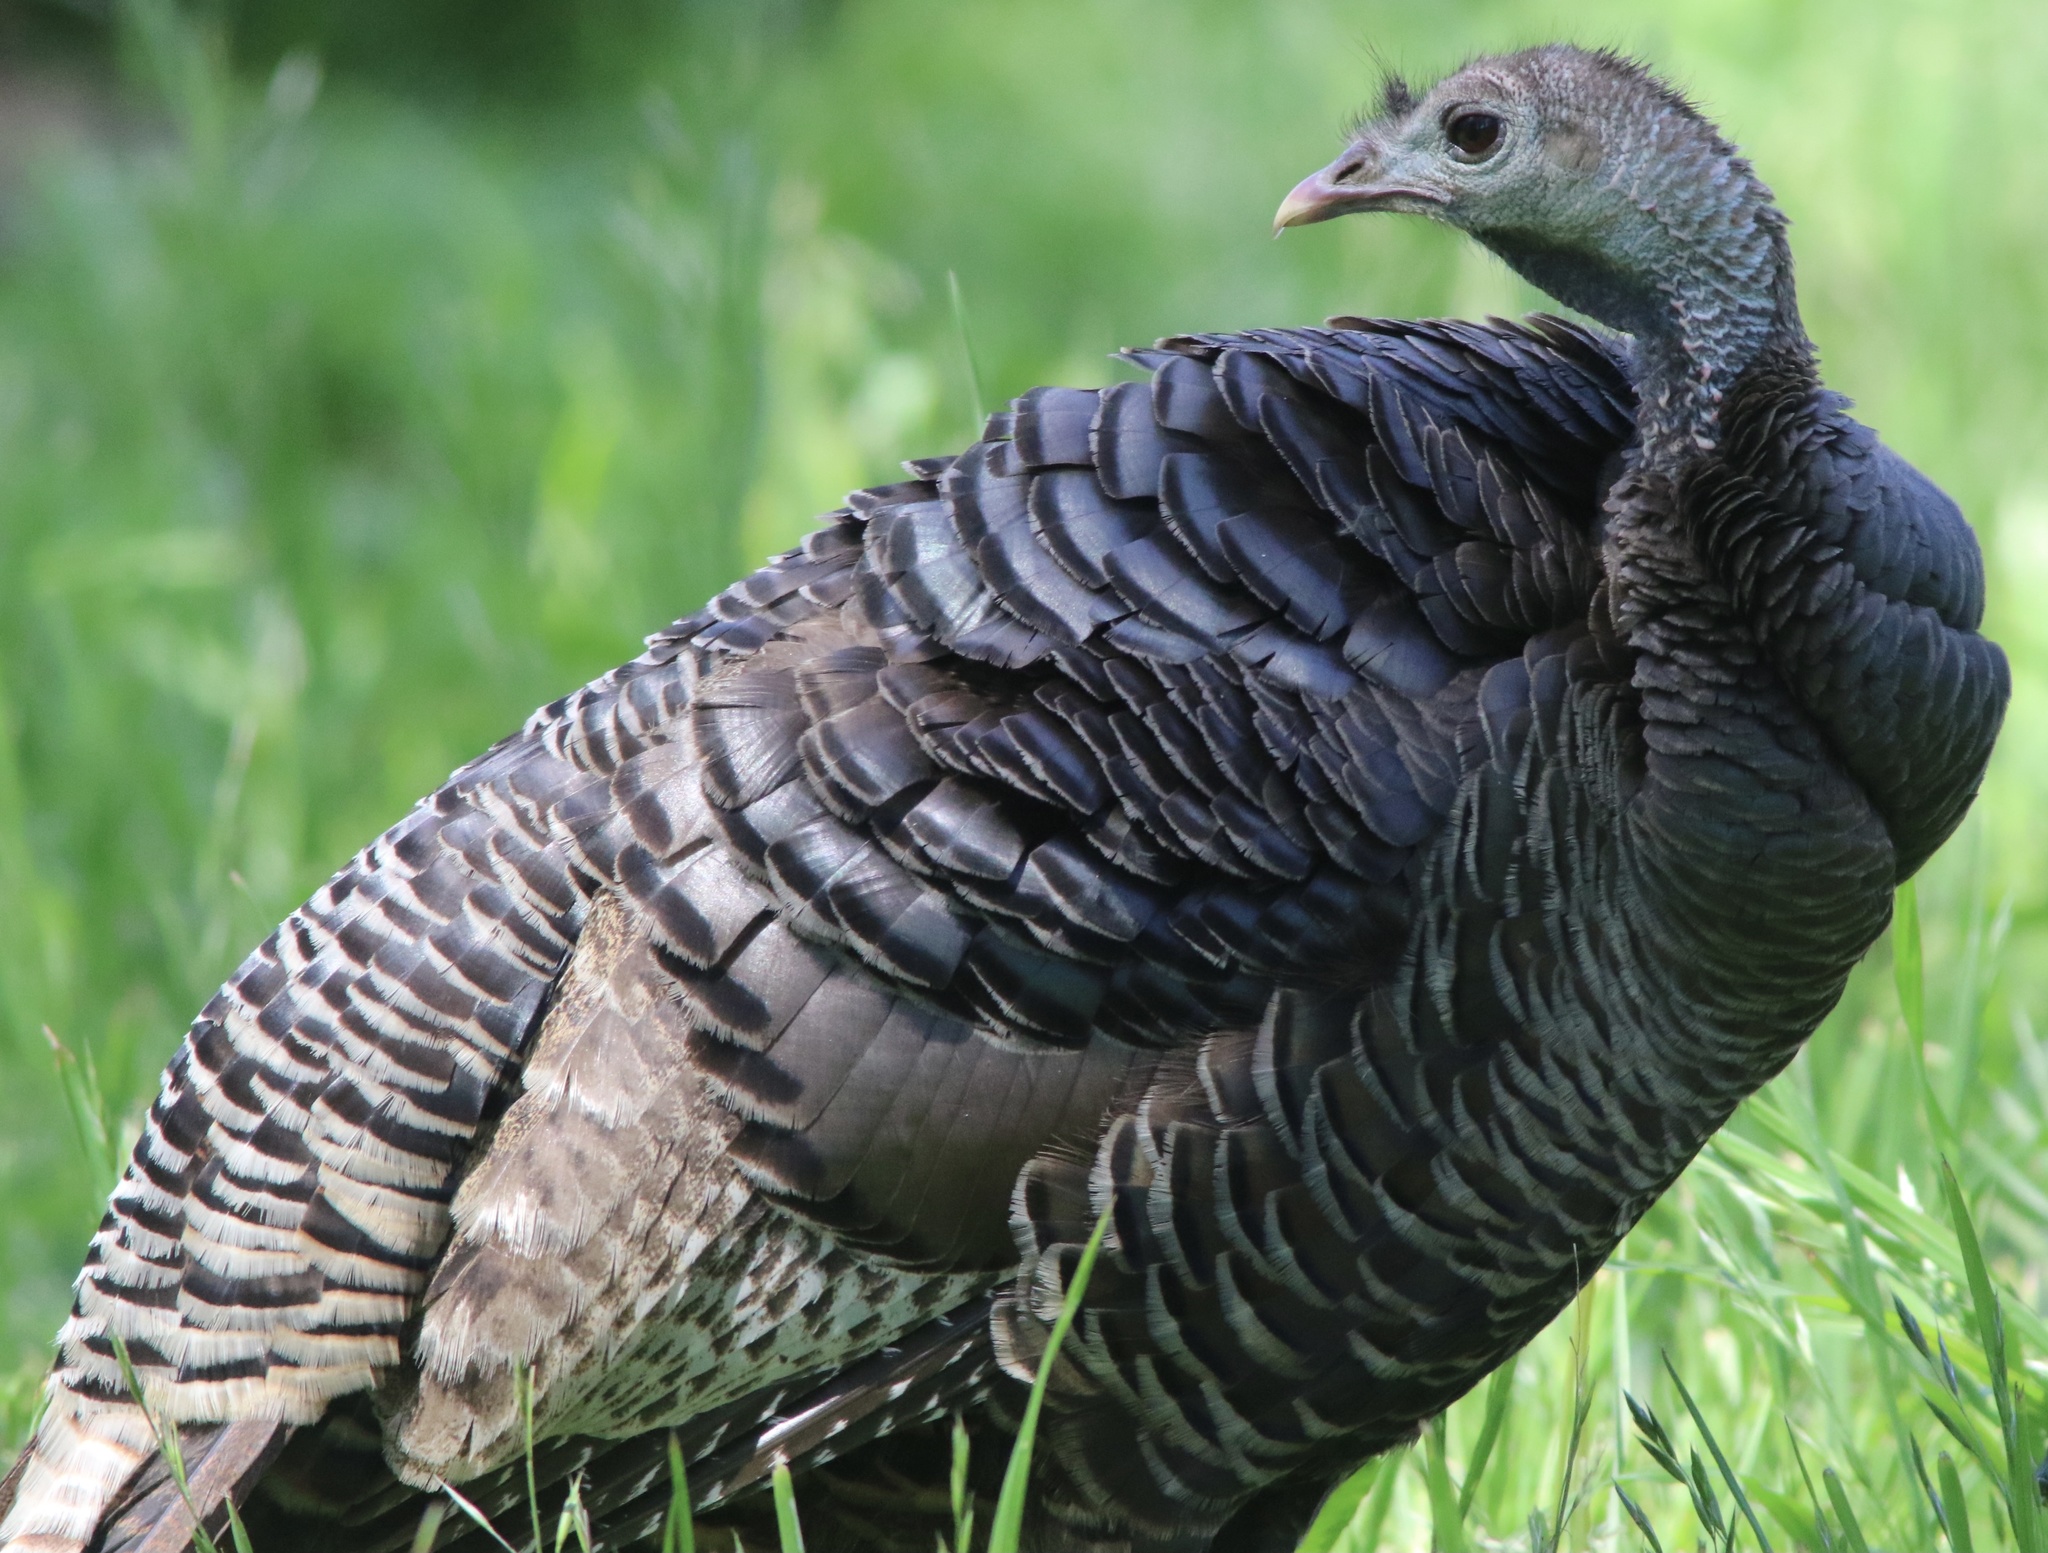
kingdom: Animalia
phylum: Chordata
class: Aves
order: Galliformes
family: Phasianidae
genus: Meleagris
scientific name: Meleagris gallopavo
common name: Wild turkey
